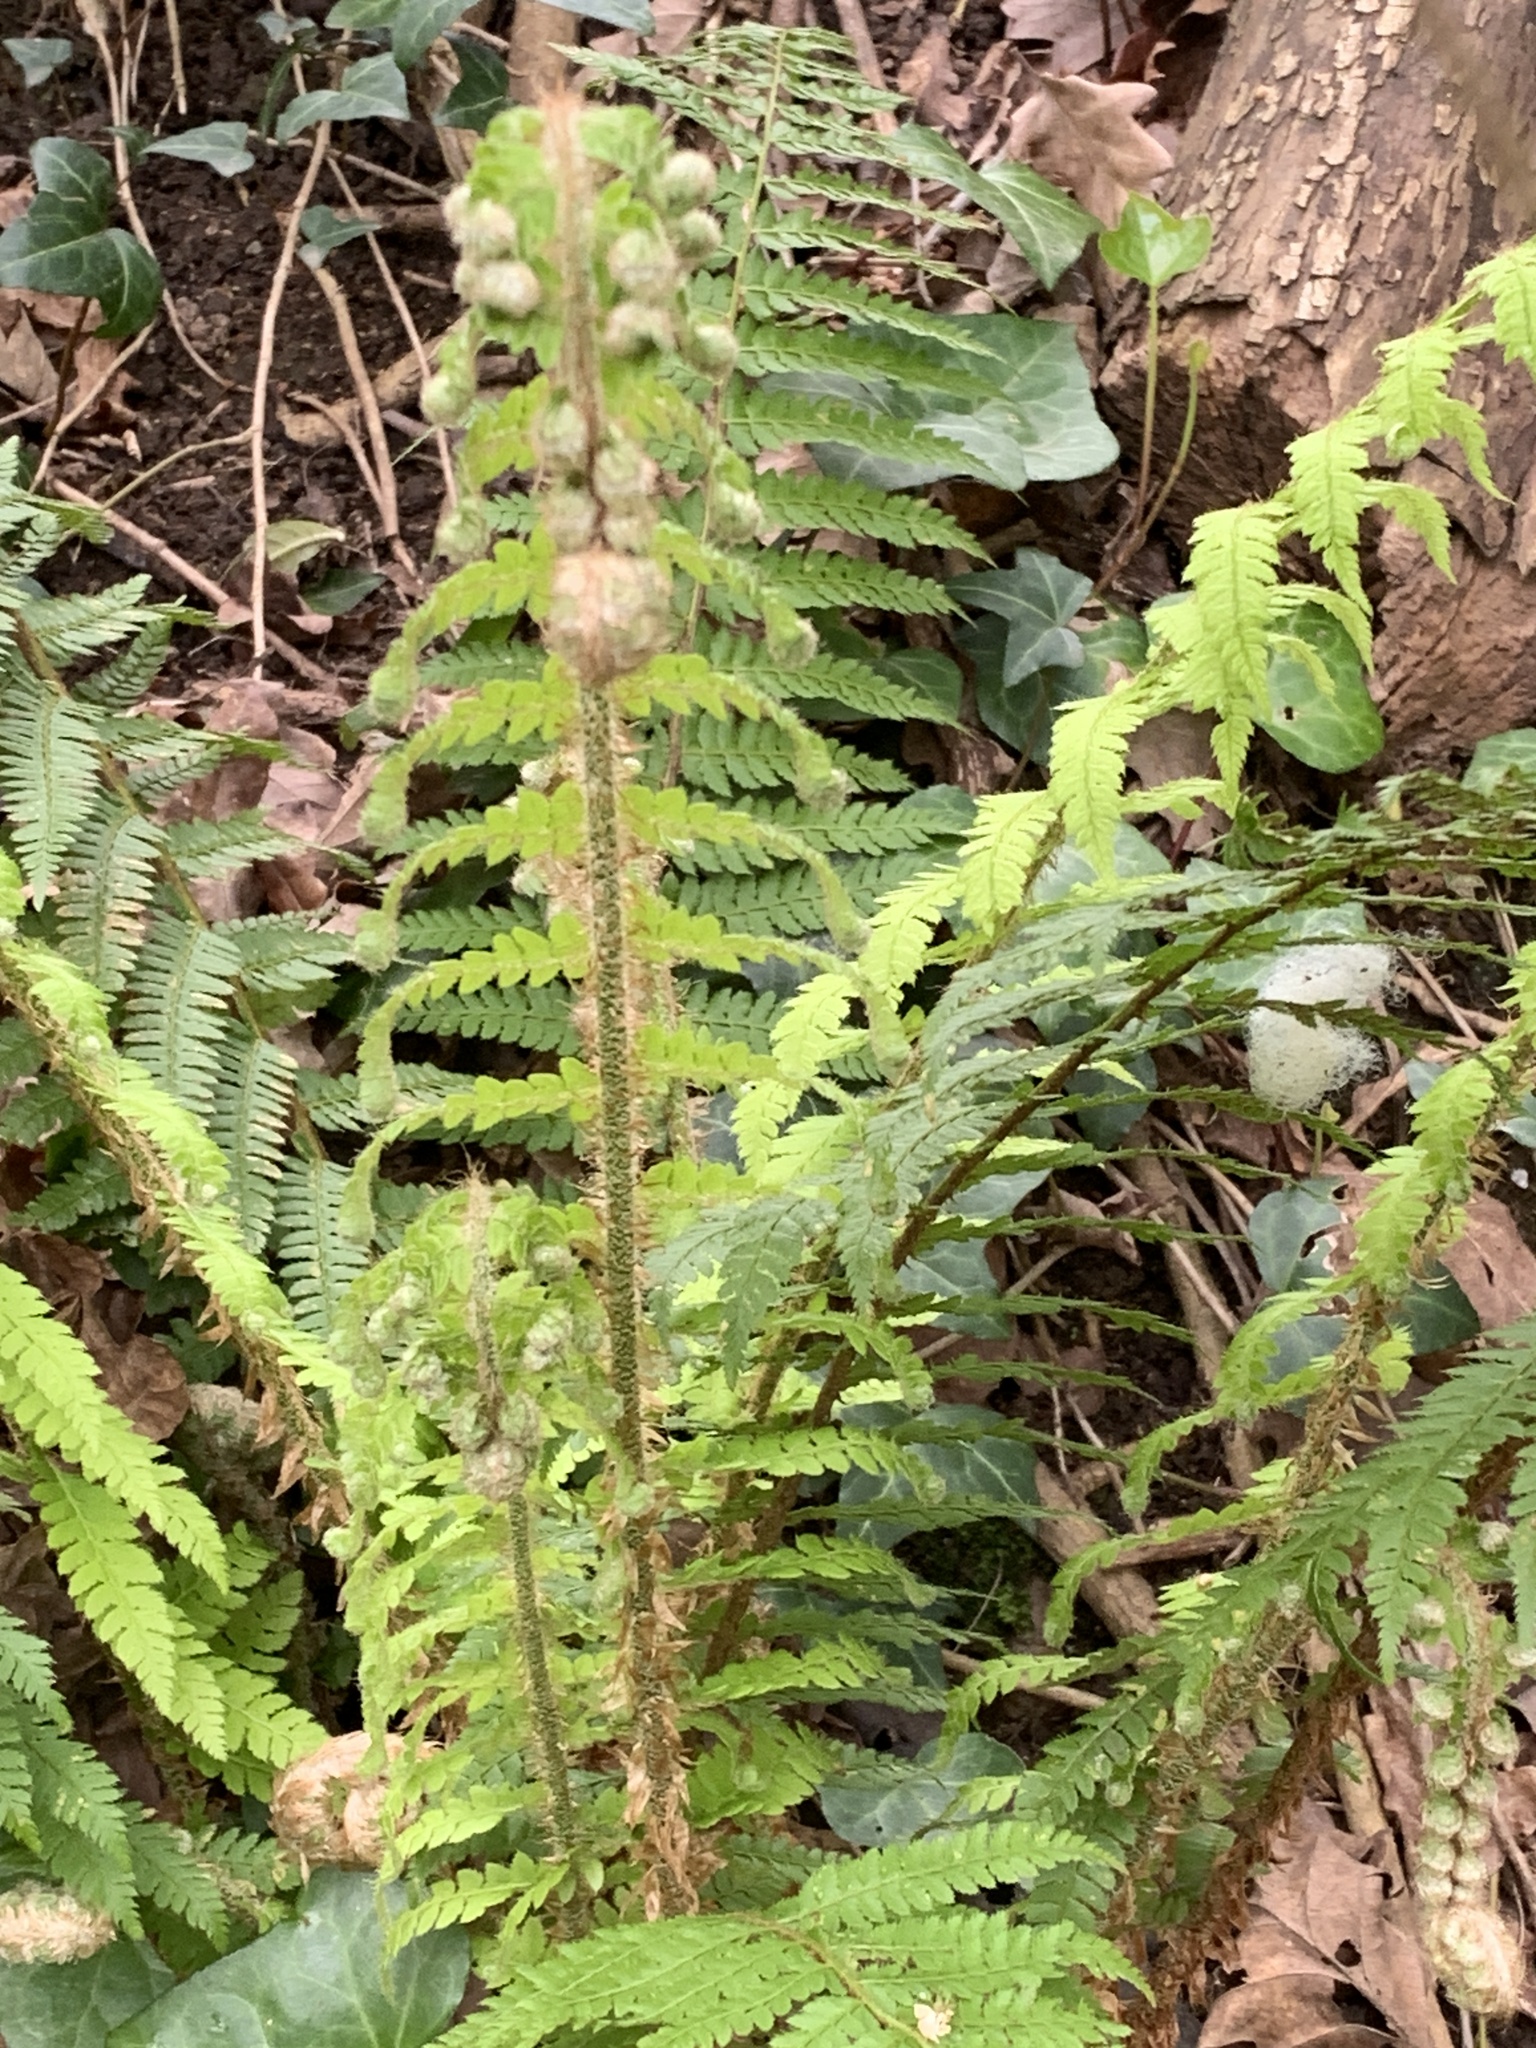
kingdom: Plantae
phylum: Tracheophyta
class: Polypodiopsida
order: Polypodiales
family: Dryopteridaceae
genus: Polystichum
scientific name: Polystichum setiferum
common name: Soft shield-fern
